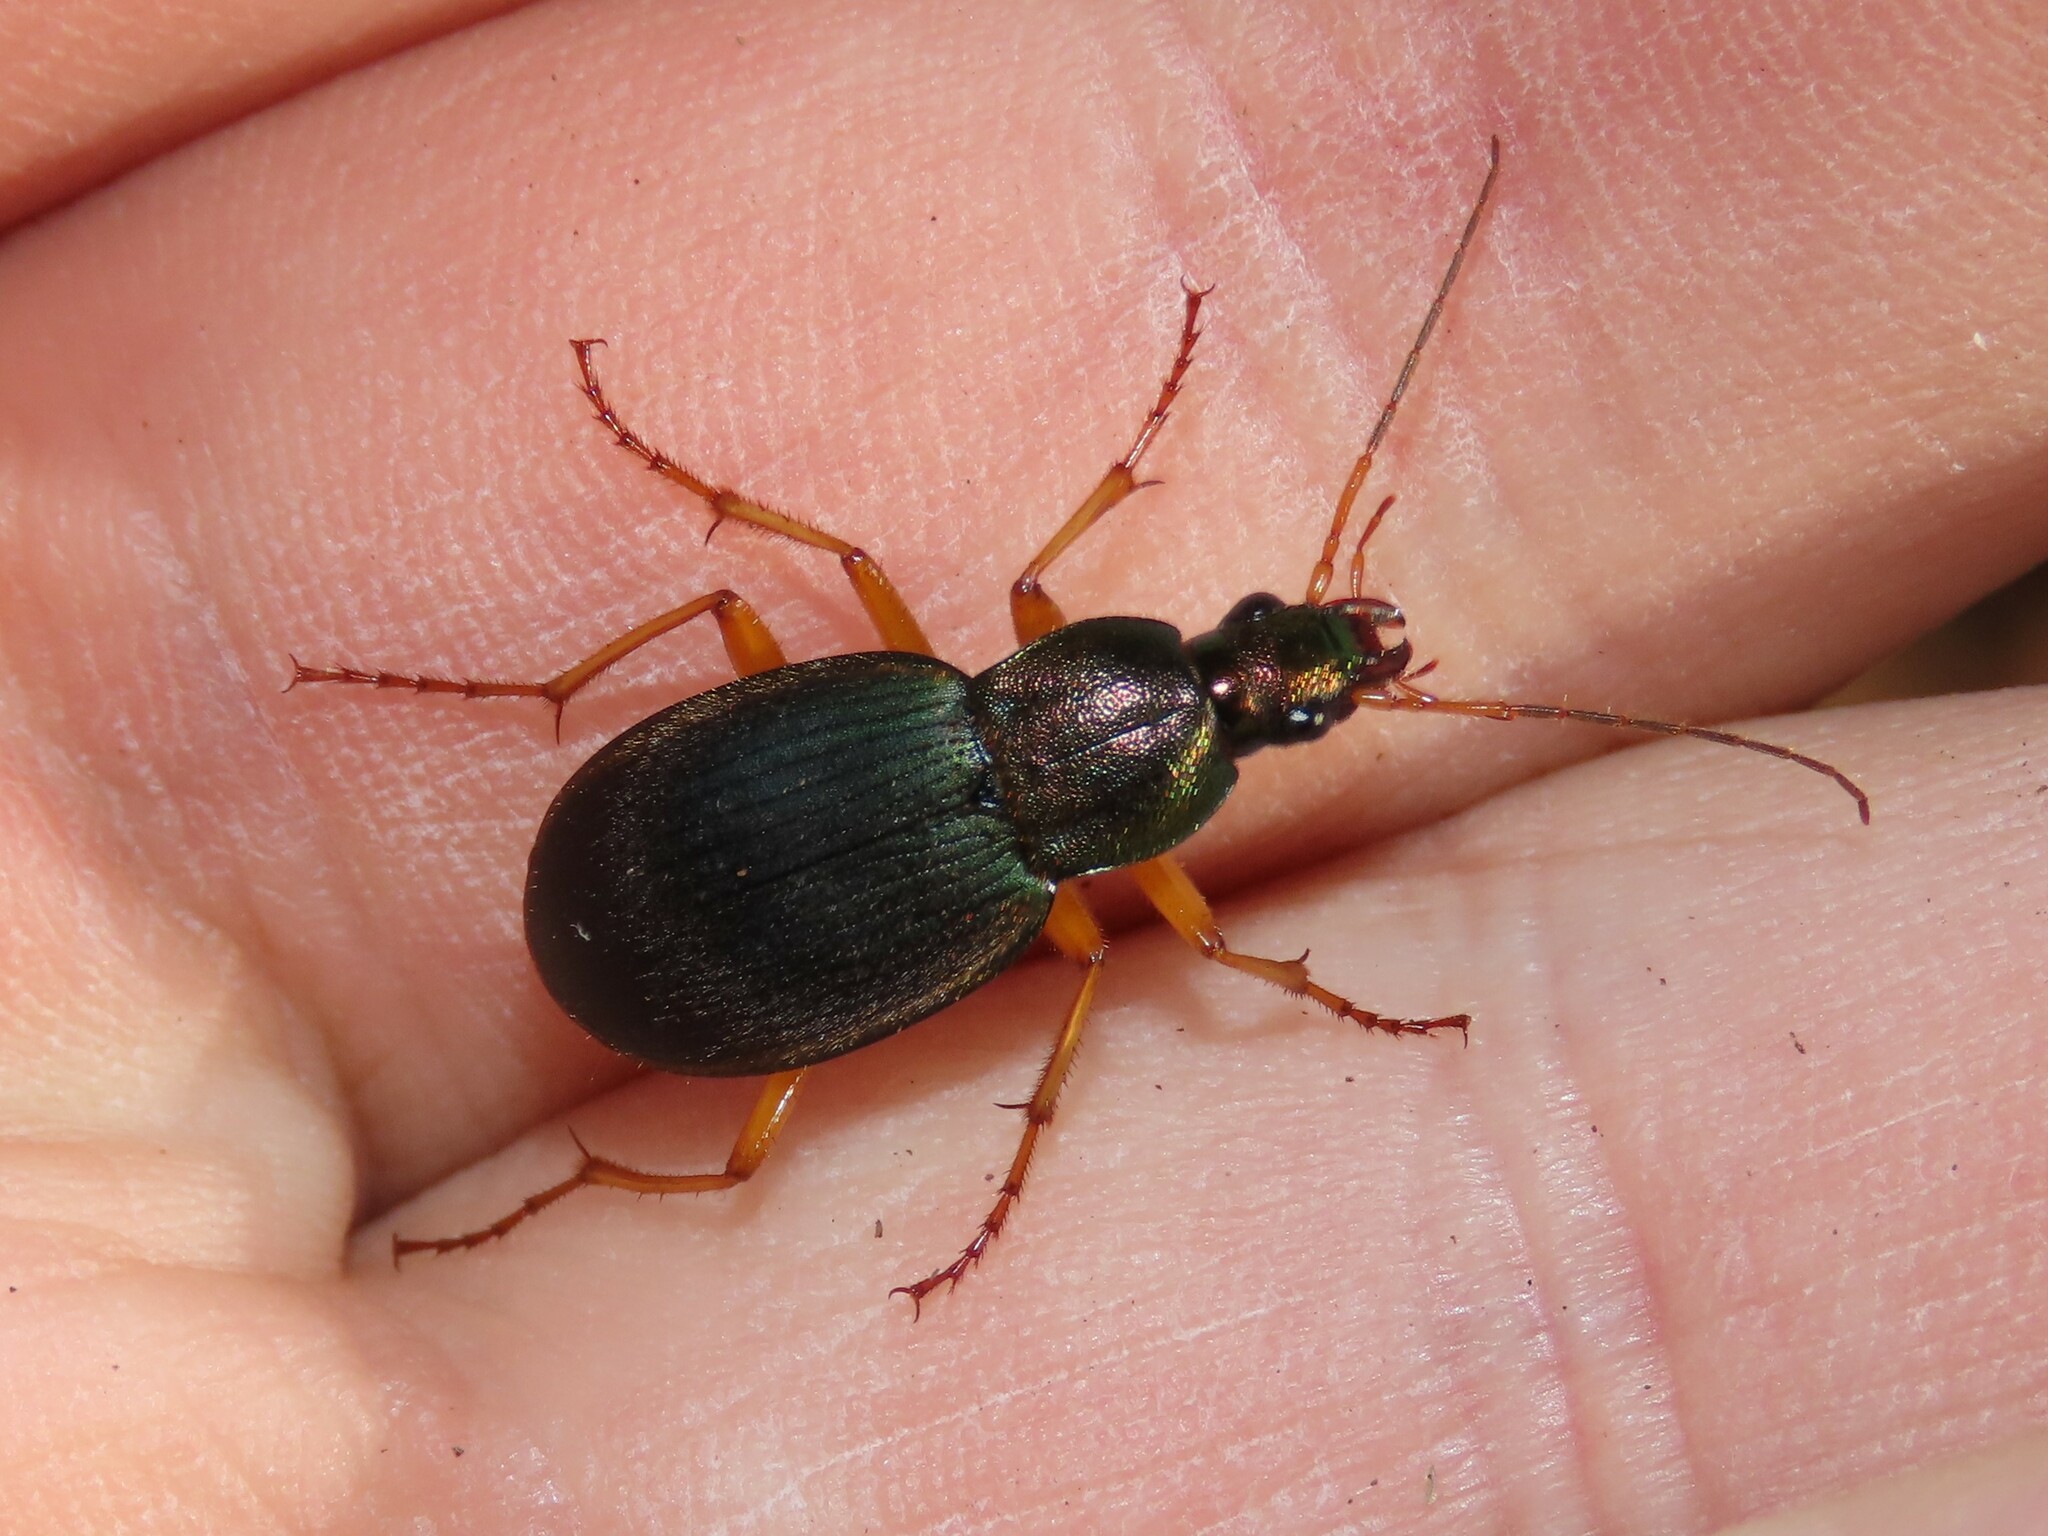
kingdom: Animalia
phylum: Arthropoda
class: Insecta
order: Coleoptera
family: Carabidae
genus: Chlaenius
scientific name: Chlaenius aestivus
